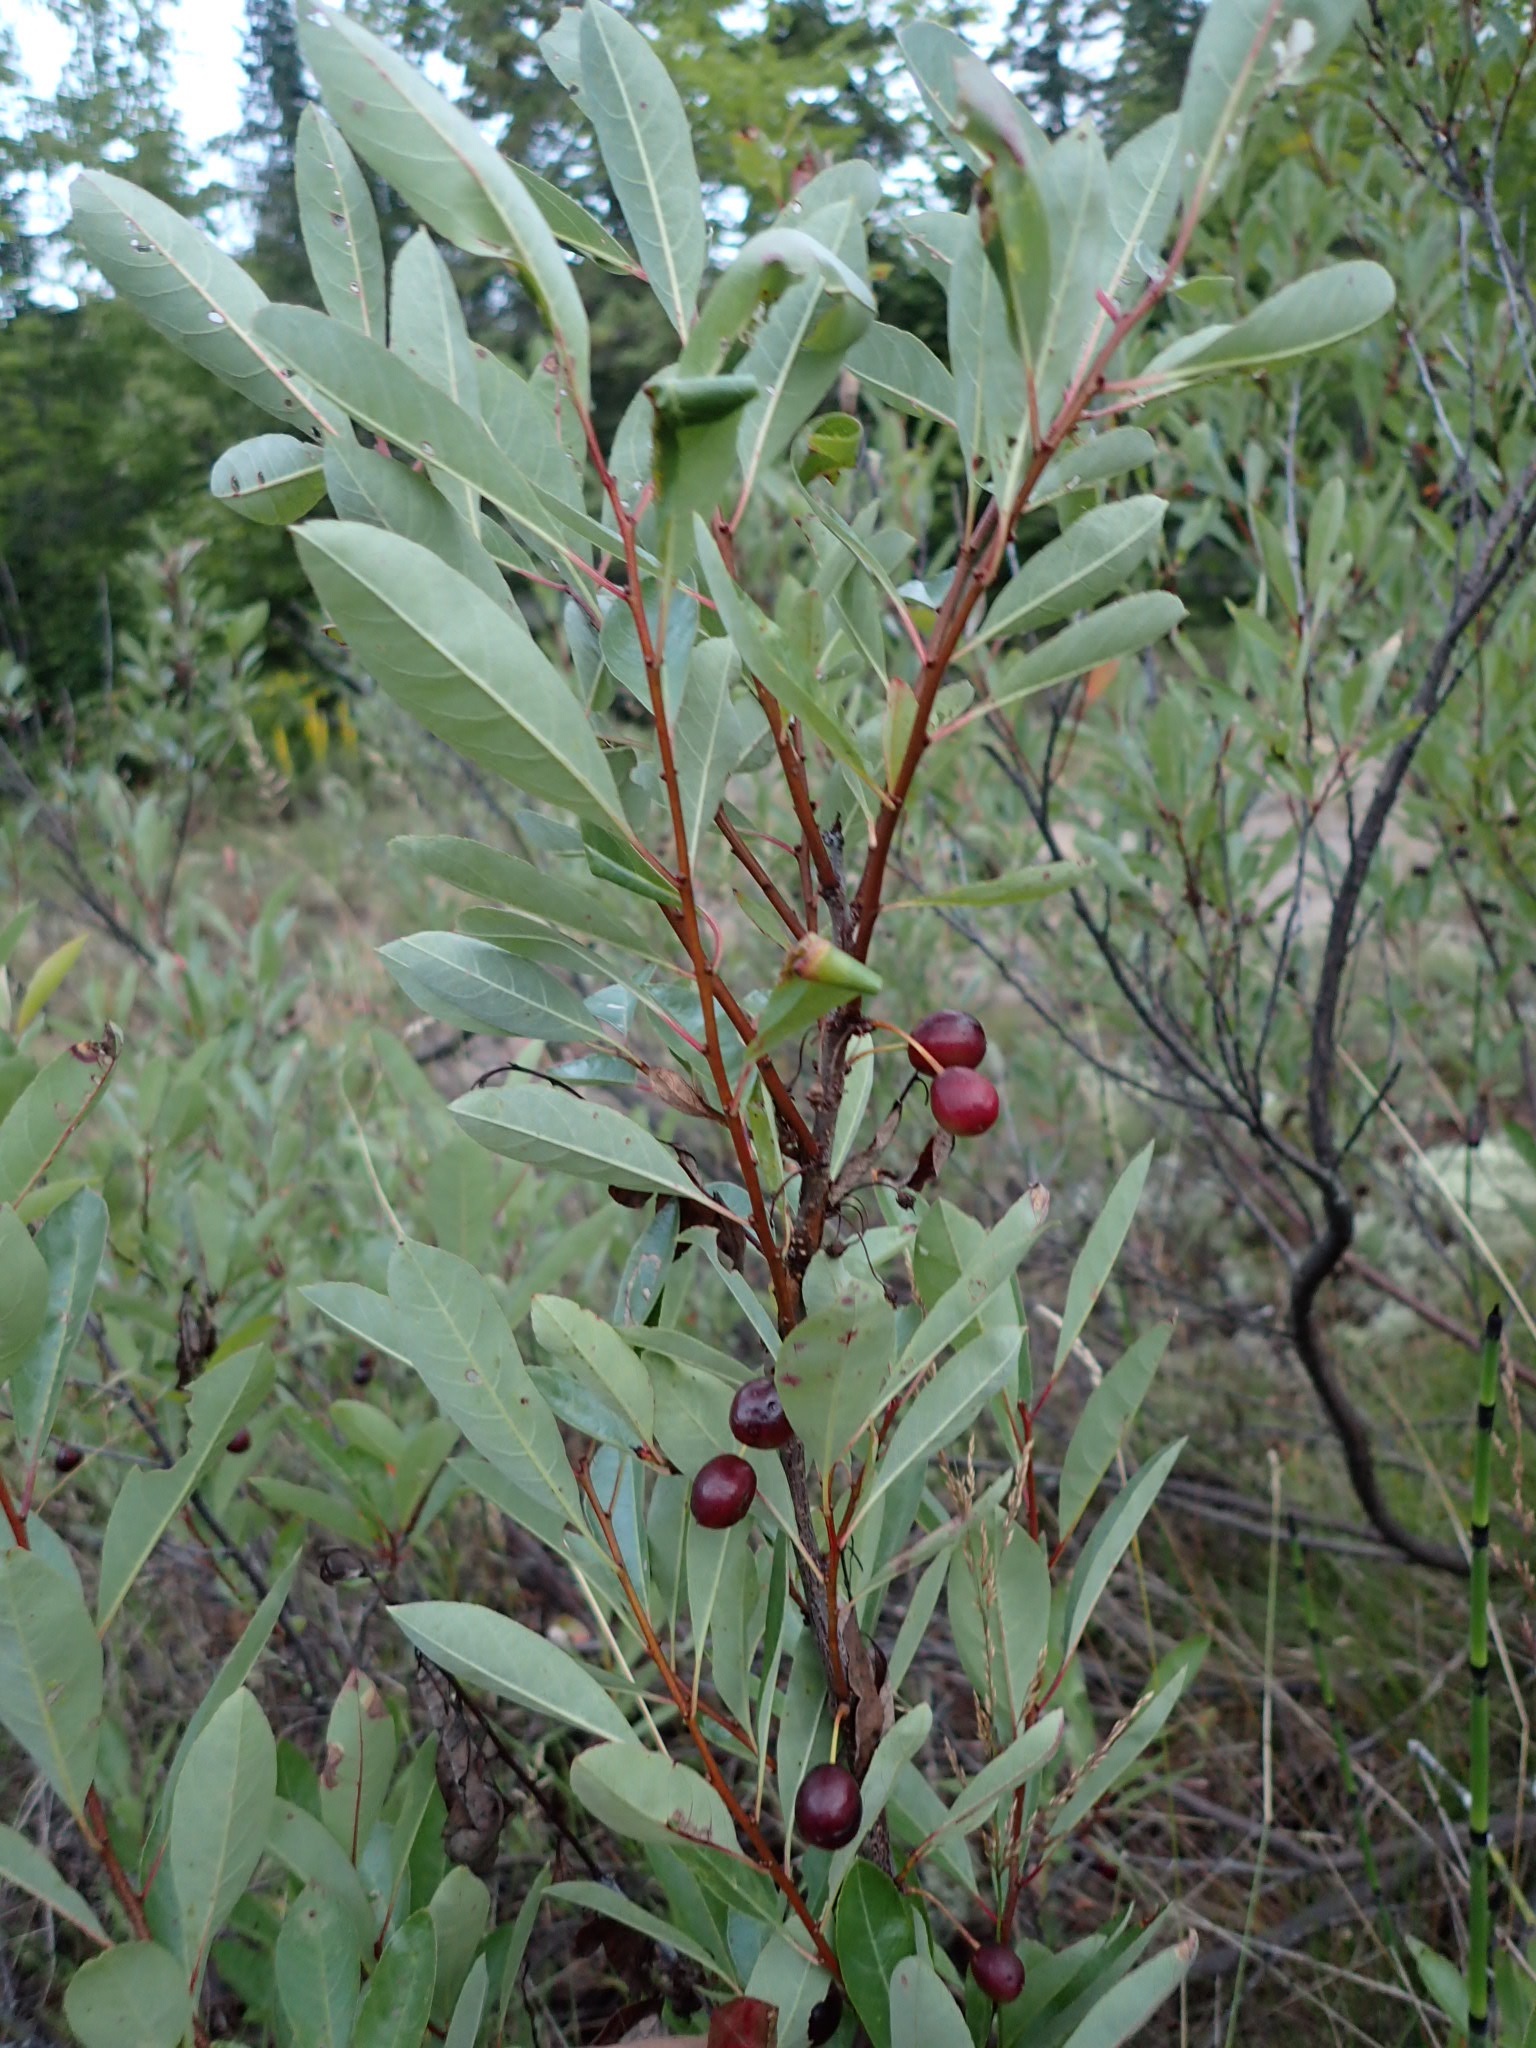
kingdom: Plantae
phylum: Tracheophyta
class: Magnoliopsida
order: Rosales
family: Rosaceae
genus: Prunus
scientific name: Prunus pumila
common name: Dwarf cherry
